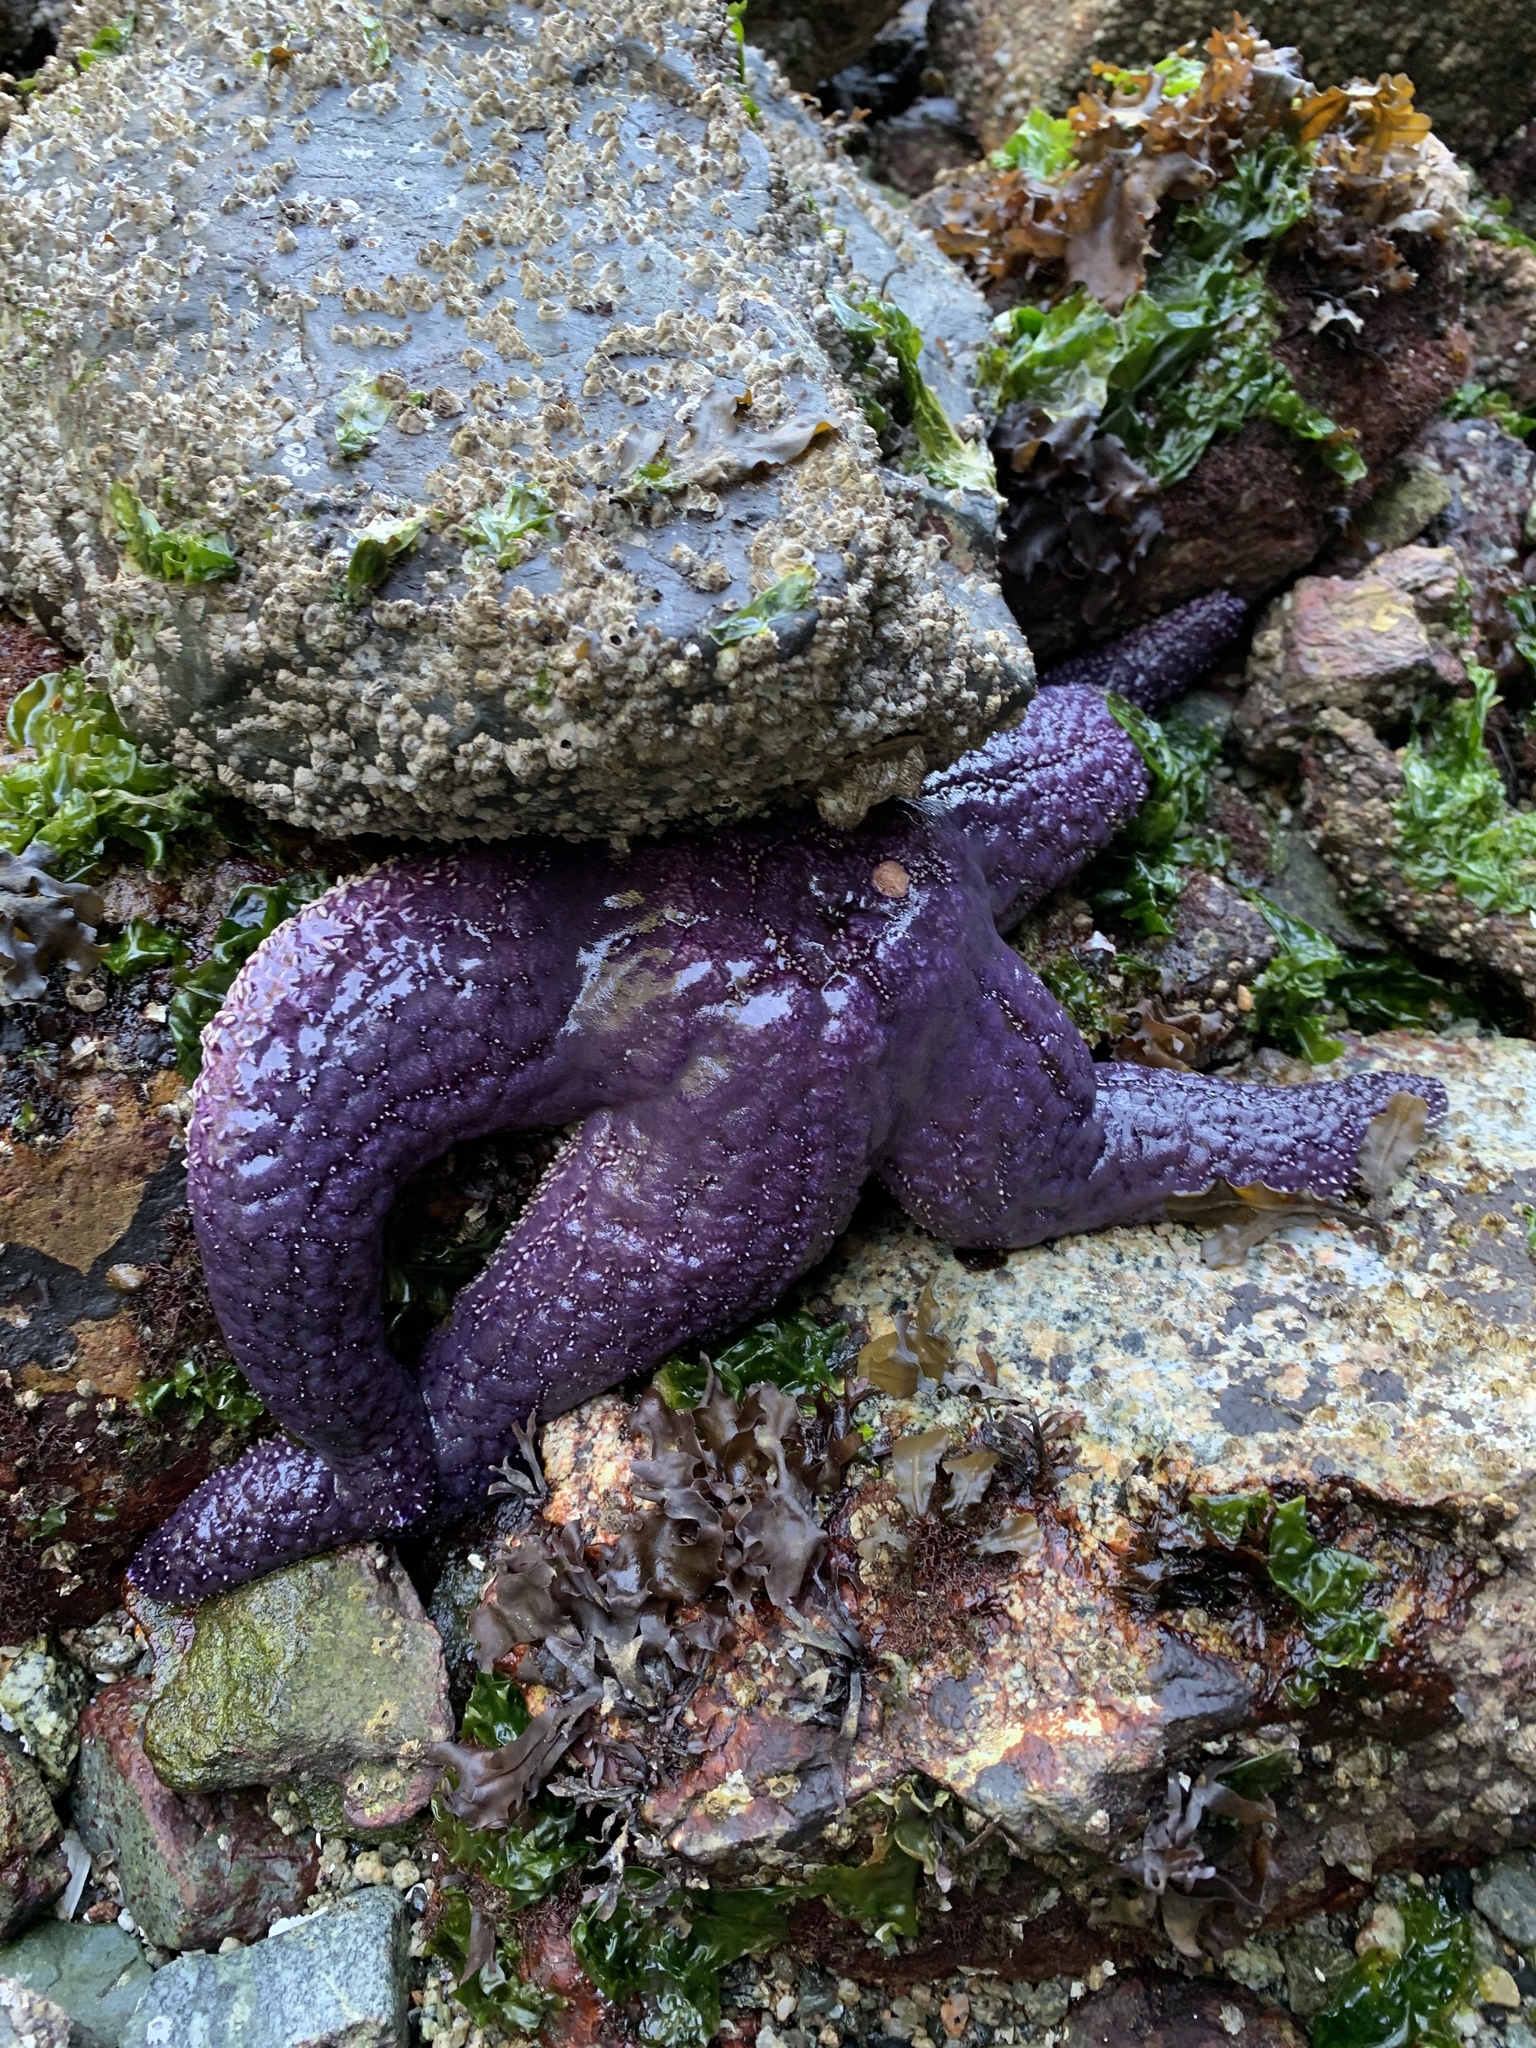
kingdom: Animalia
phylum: Echinodermata
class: Asteroidea
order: Forcipulatida
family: Asteriidae
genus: Pisaster
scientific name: Pisaster ochraceus
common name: Ochre stars
